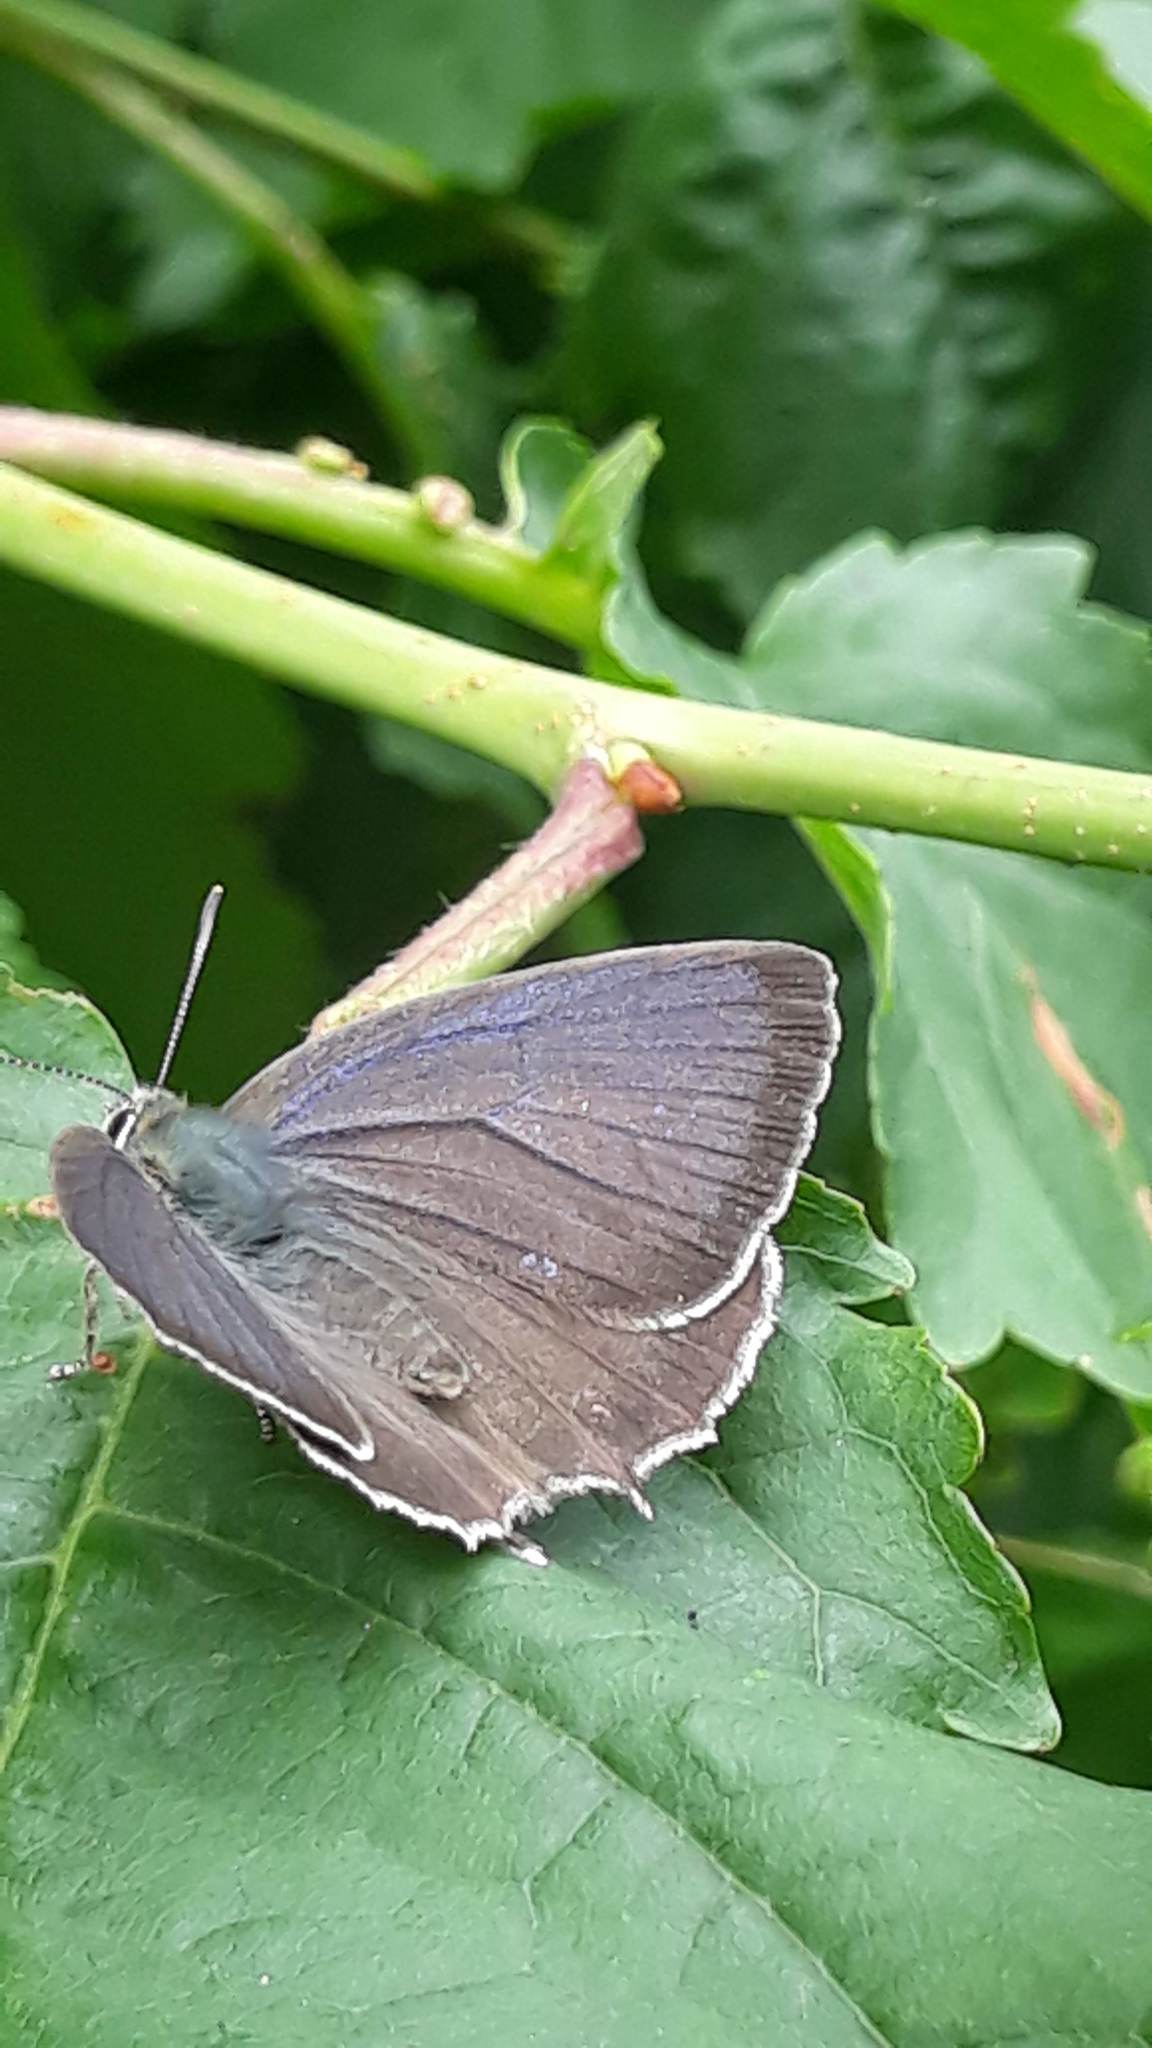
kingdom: Animalia
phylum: Arthropoda
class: Insecta
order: Lepidoptera
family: Lycaenidae
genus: Quercusia
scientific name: Quercusia quercus
